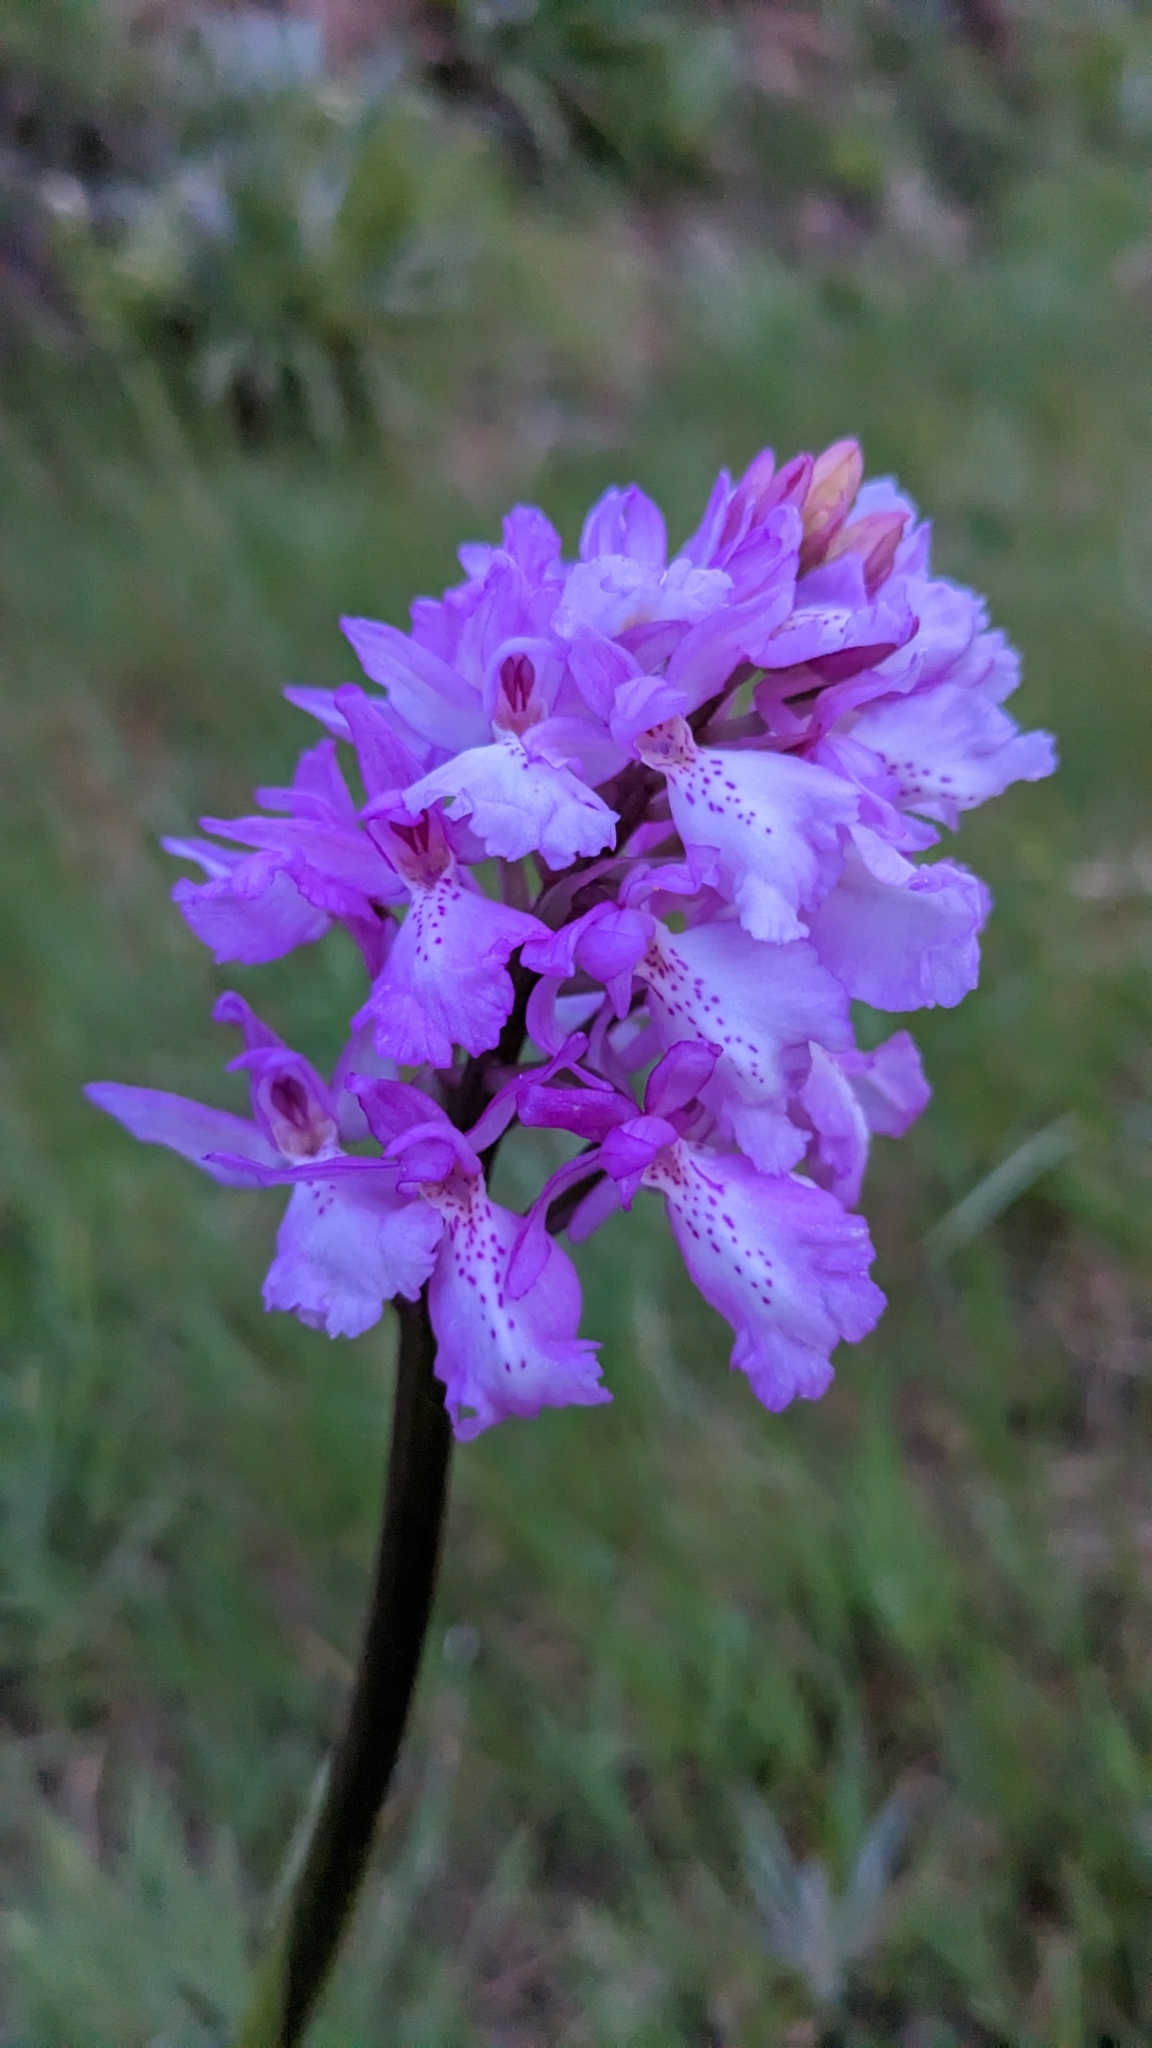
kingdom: Plantae
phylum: Tracheophyta
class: Liliopsida
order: Asparagales
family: Orchidaceae
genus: Orchis
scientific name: Orchis mascula
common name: Early-purple orchid
